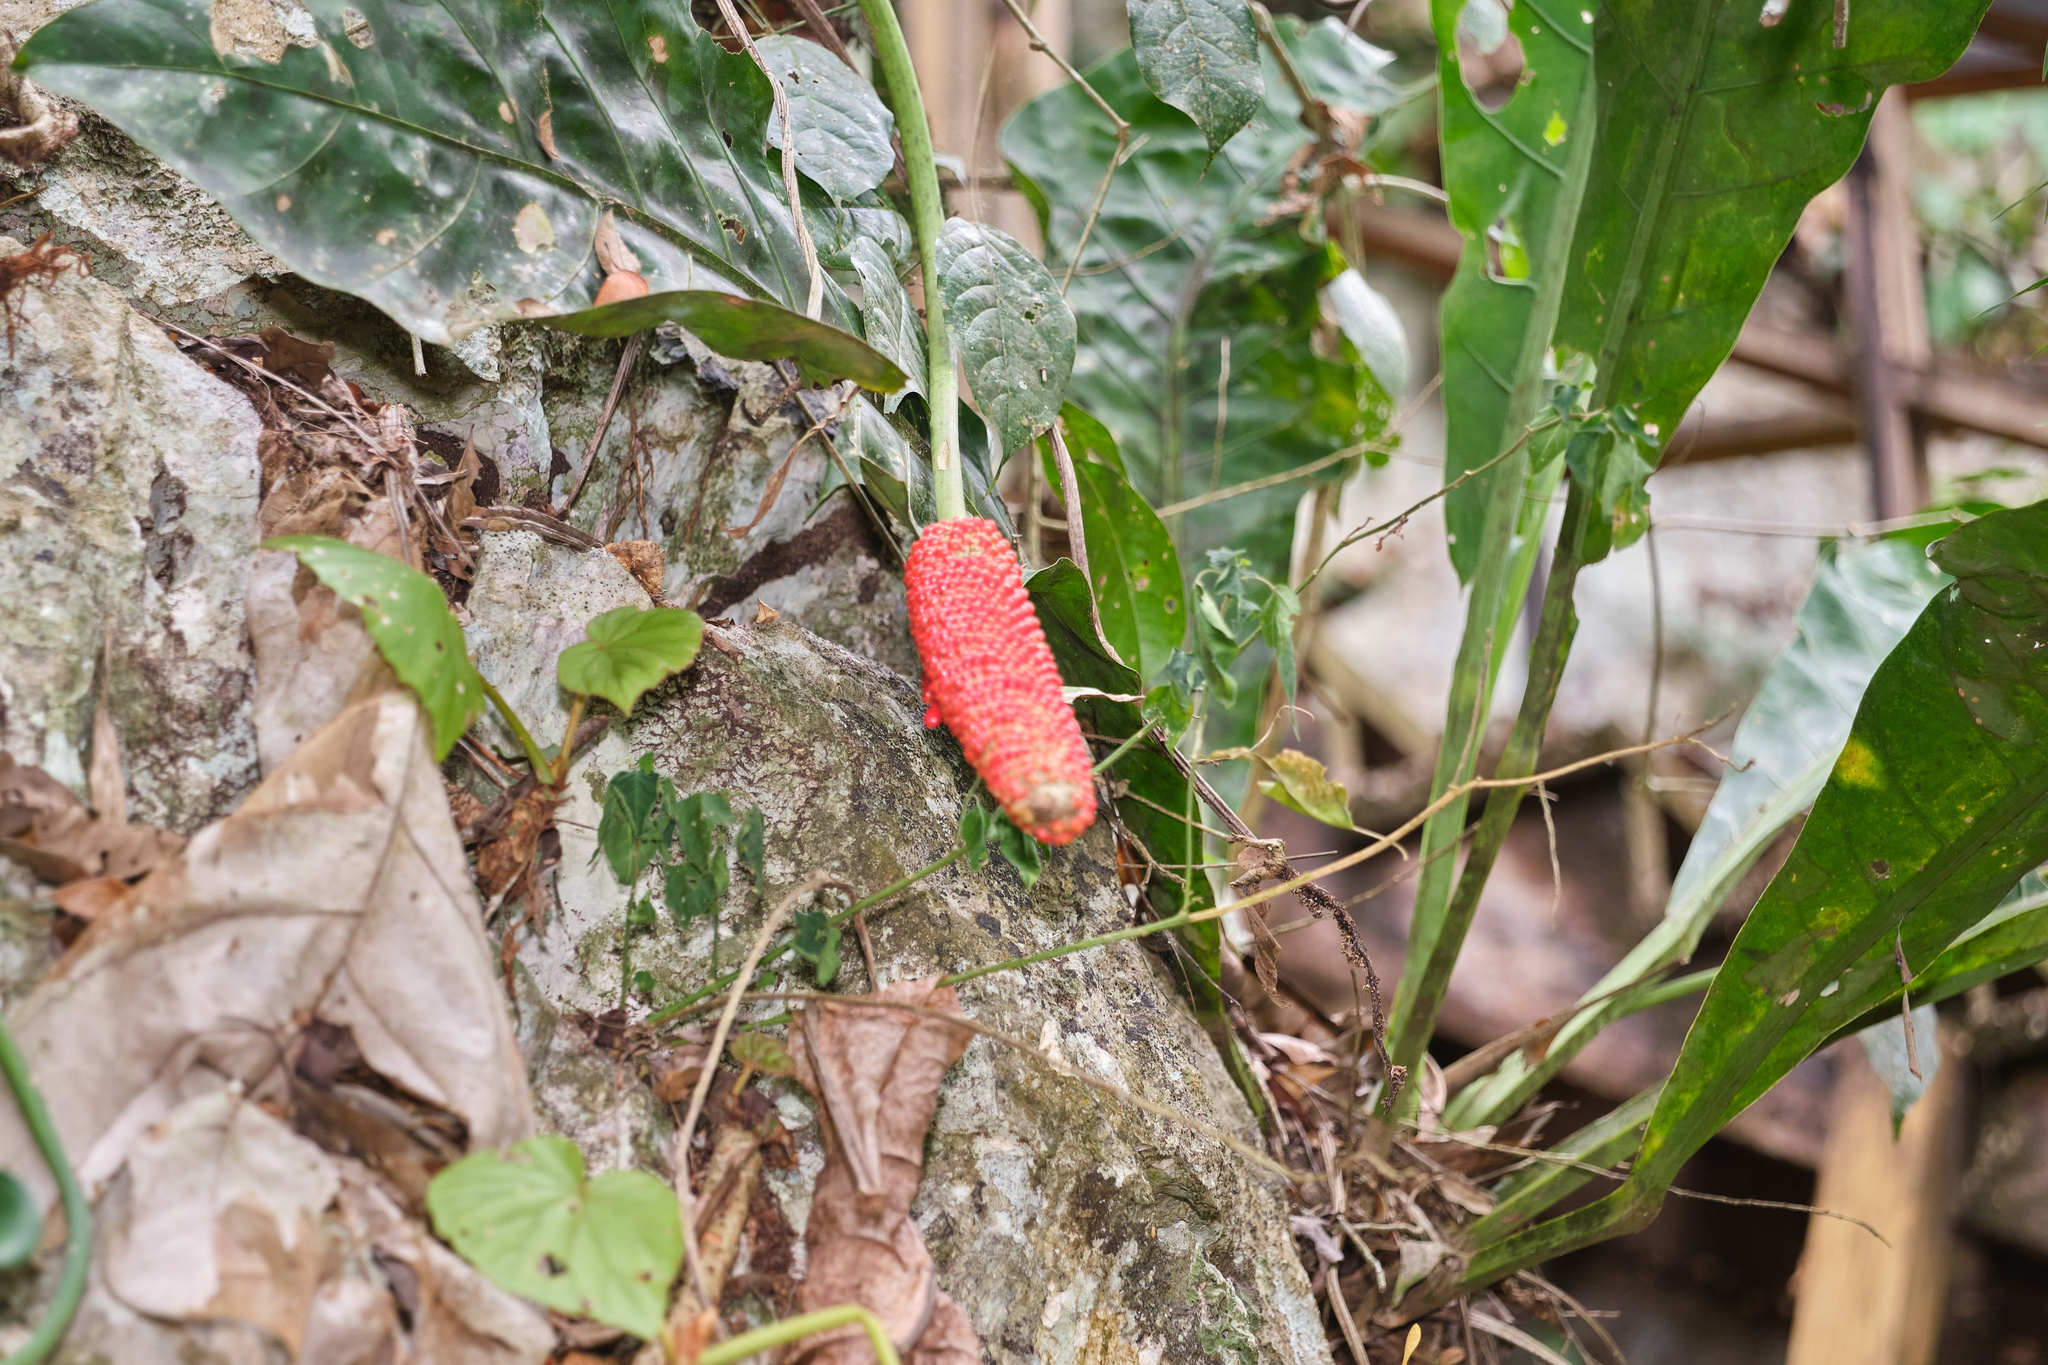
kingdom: Plantae
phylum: Tracheophyta
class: Liliopsida
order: Alismatales
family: Araceae
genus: Anthurium
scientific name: Anthurium schlechtendalii
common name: Laceleaf
